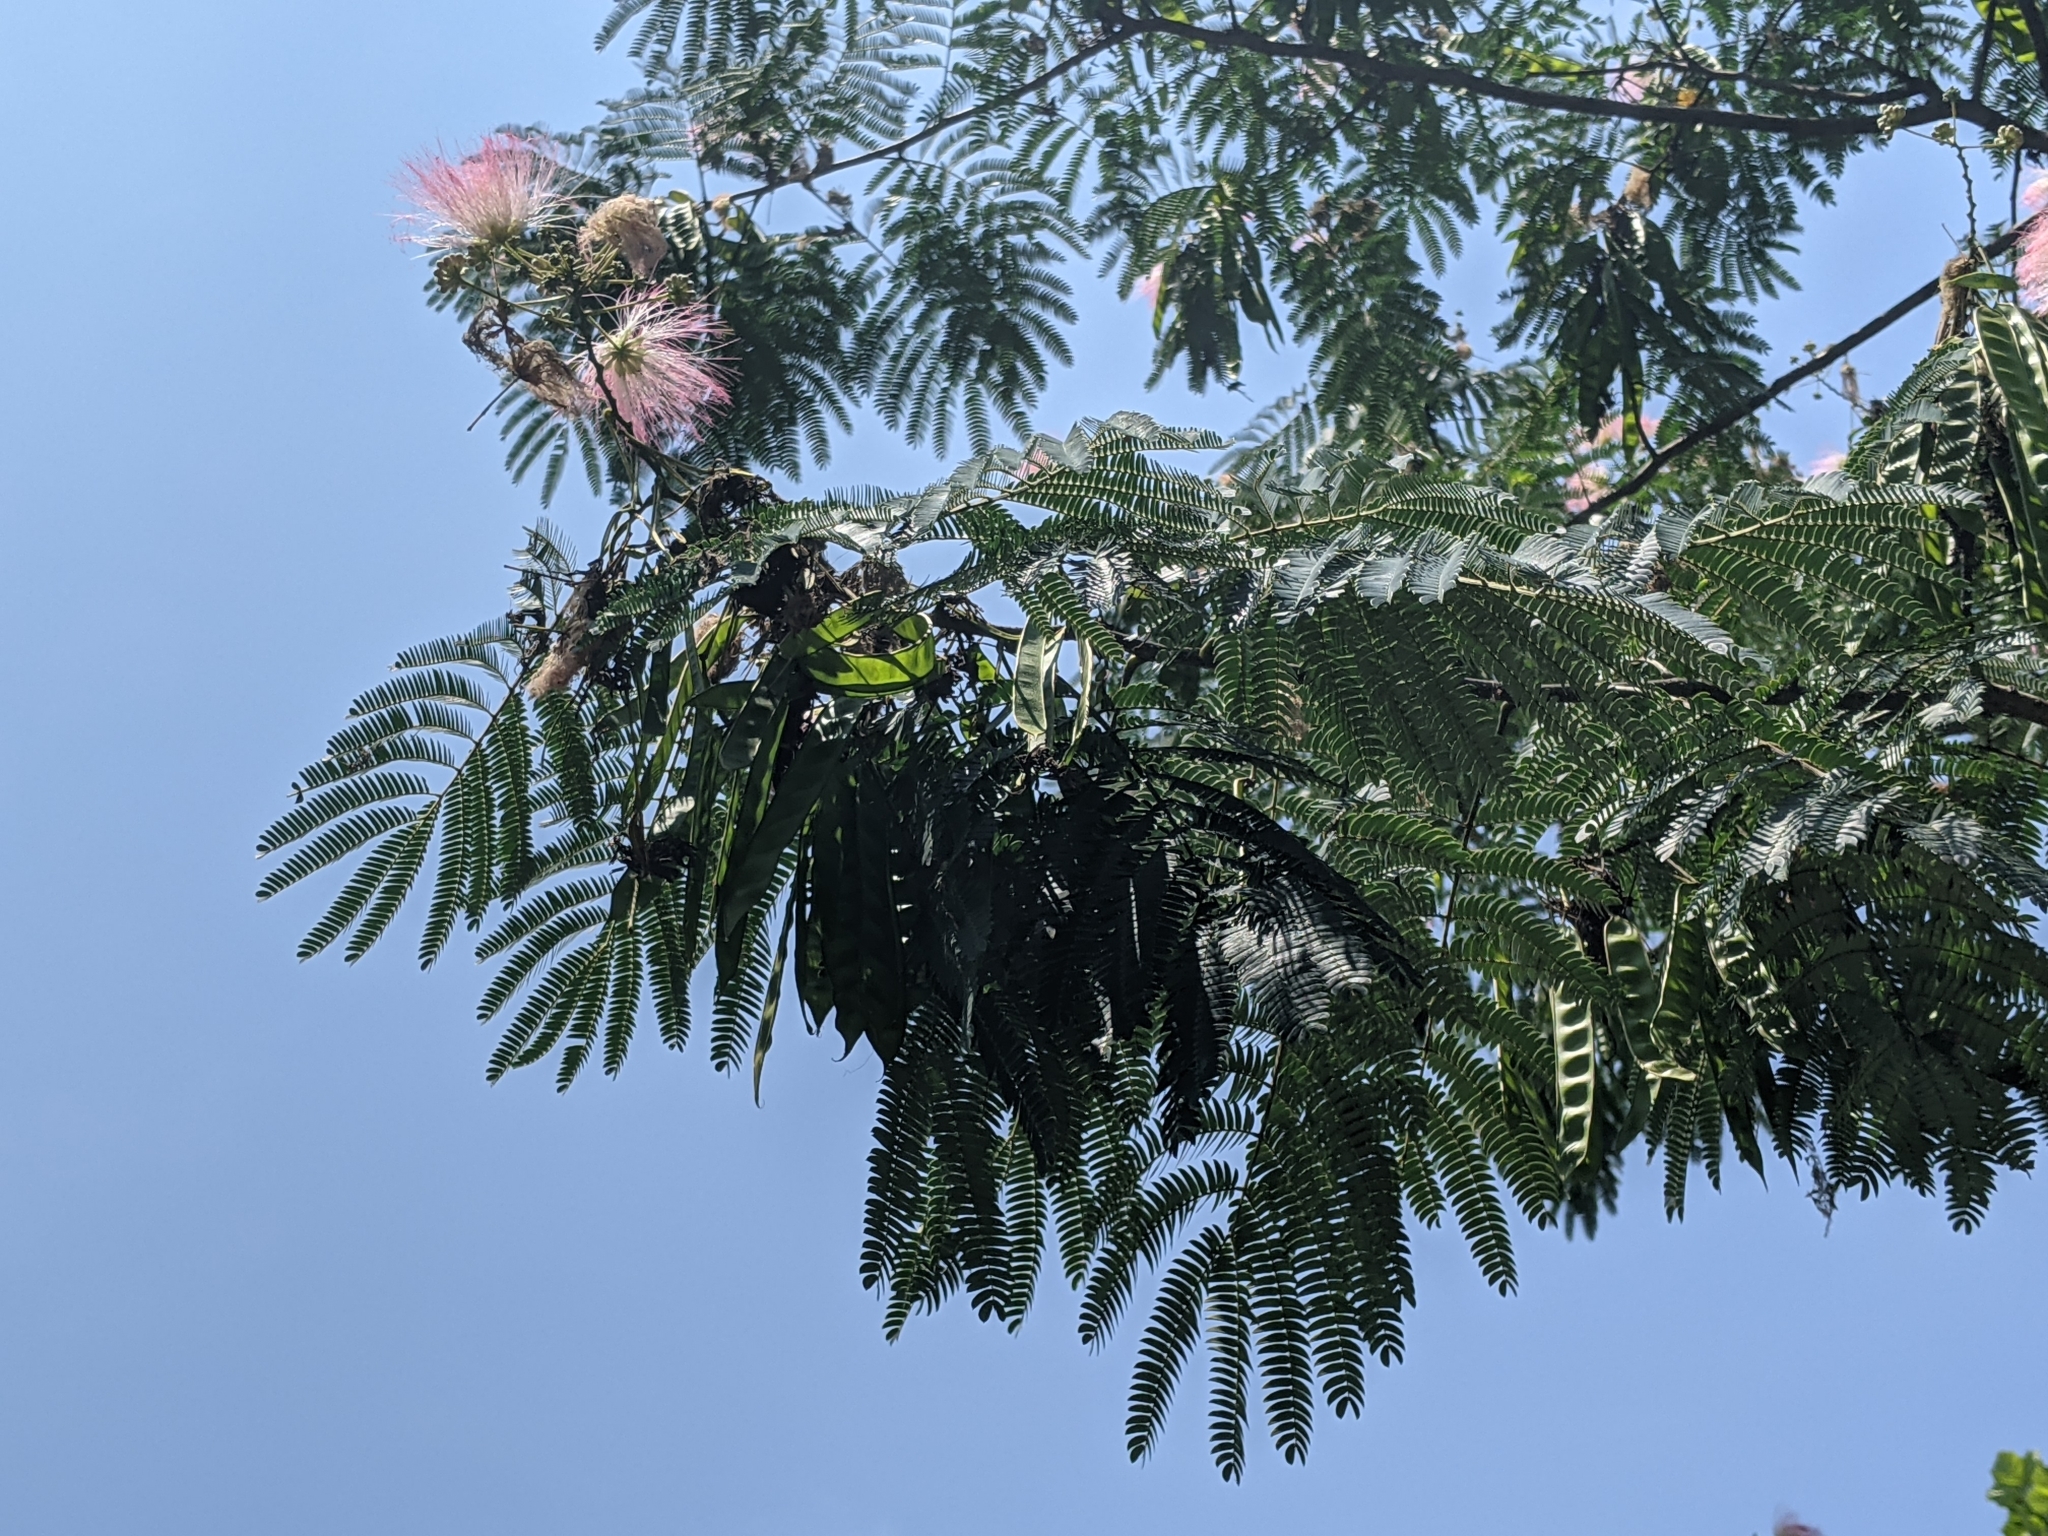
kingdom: Plantae
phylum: Tracheophyta
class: Magnoliopsida
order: Fabales
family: Fabaceae
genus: Albizia
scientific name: Albizia julibrissin
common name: Silktree
